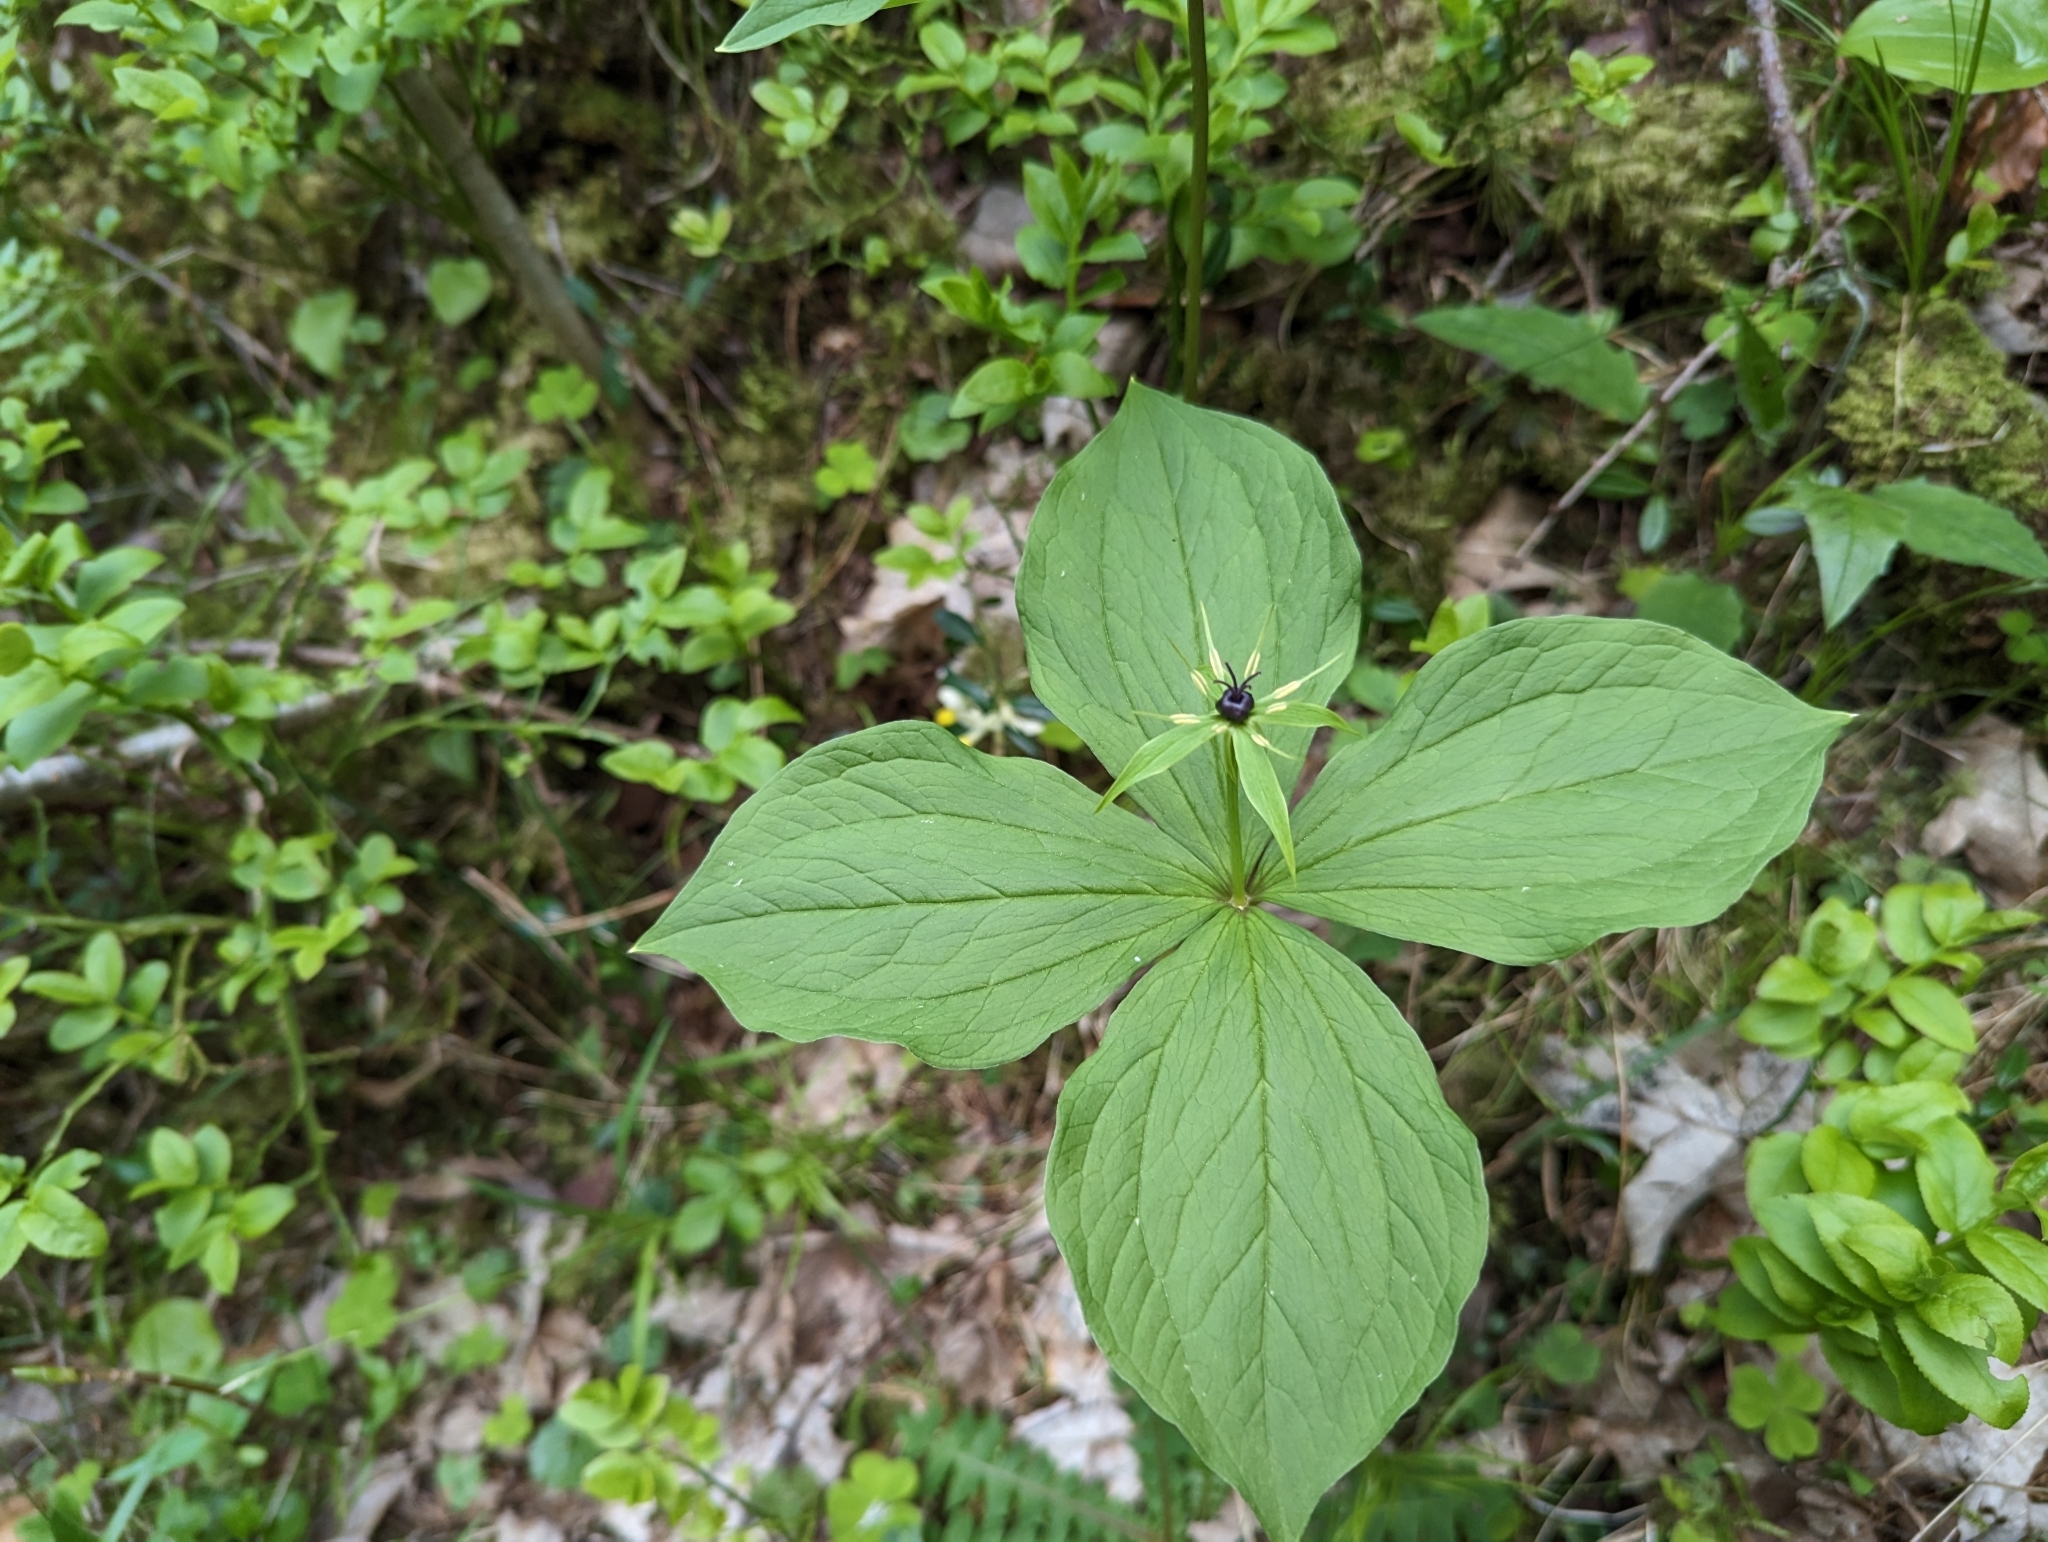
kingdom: Plantae
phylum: Tracheophyta
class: Liliopsida
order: Liliales
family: Melanthiaceae
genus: Paris
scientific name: Paris quadrifolia
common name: Herb-paris
